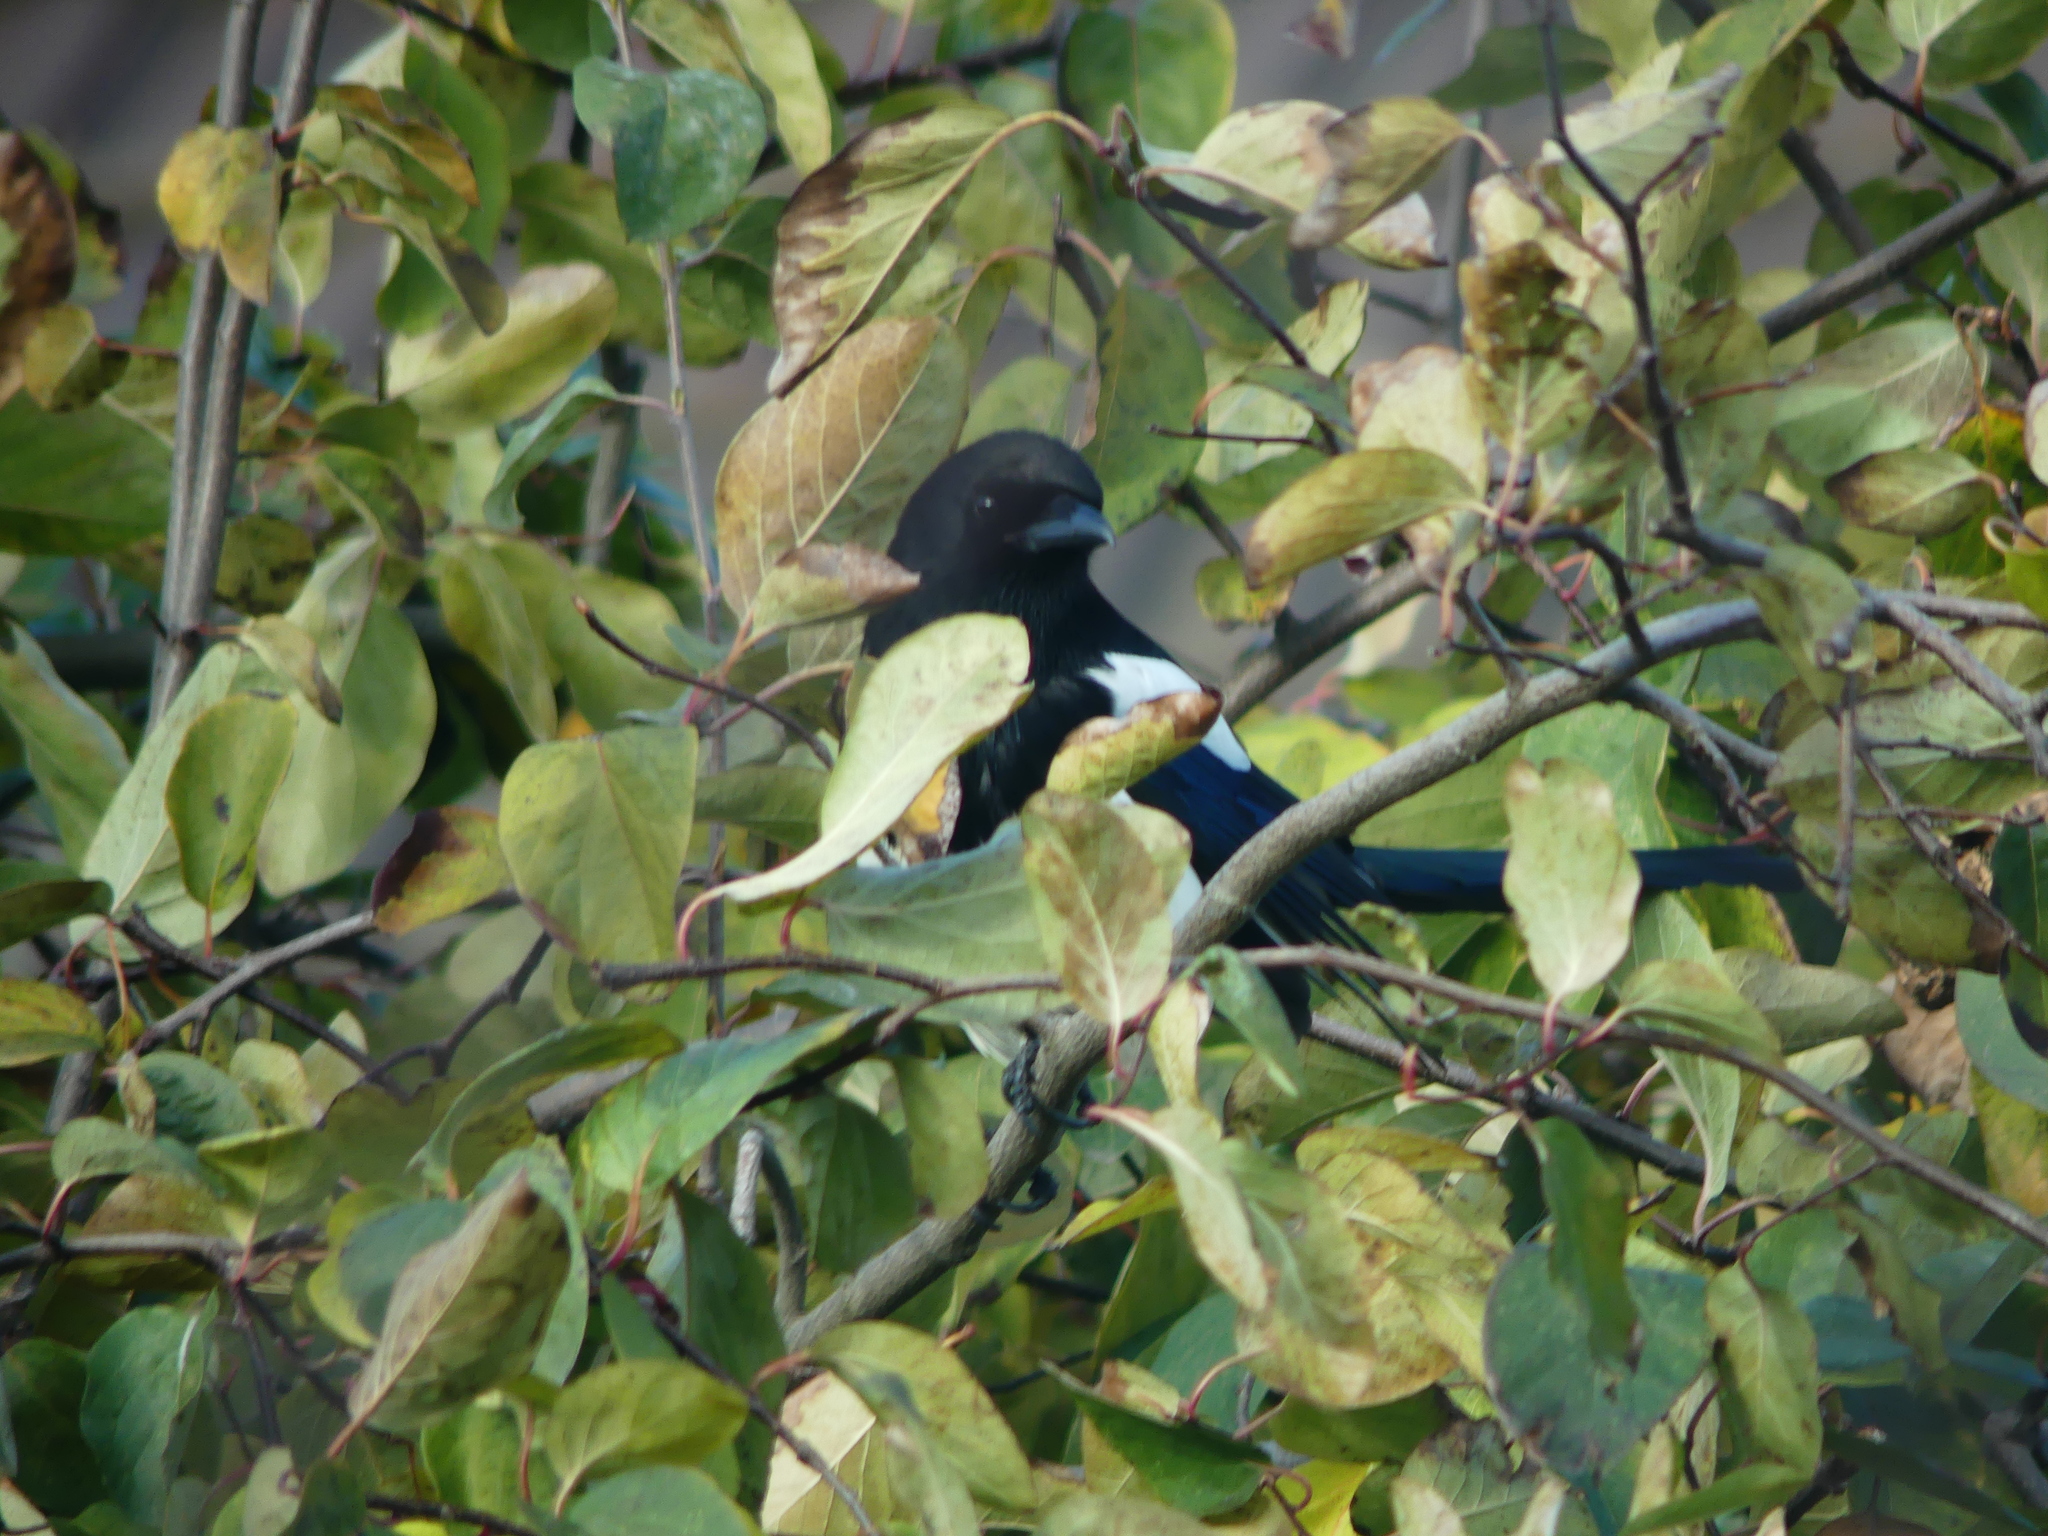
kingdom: Animalia
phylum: Chordata
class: Aves
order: Passeriformes
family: Corvidae
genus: Pica
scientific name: Pica pica
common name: Eurasian magpie
